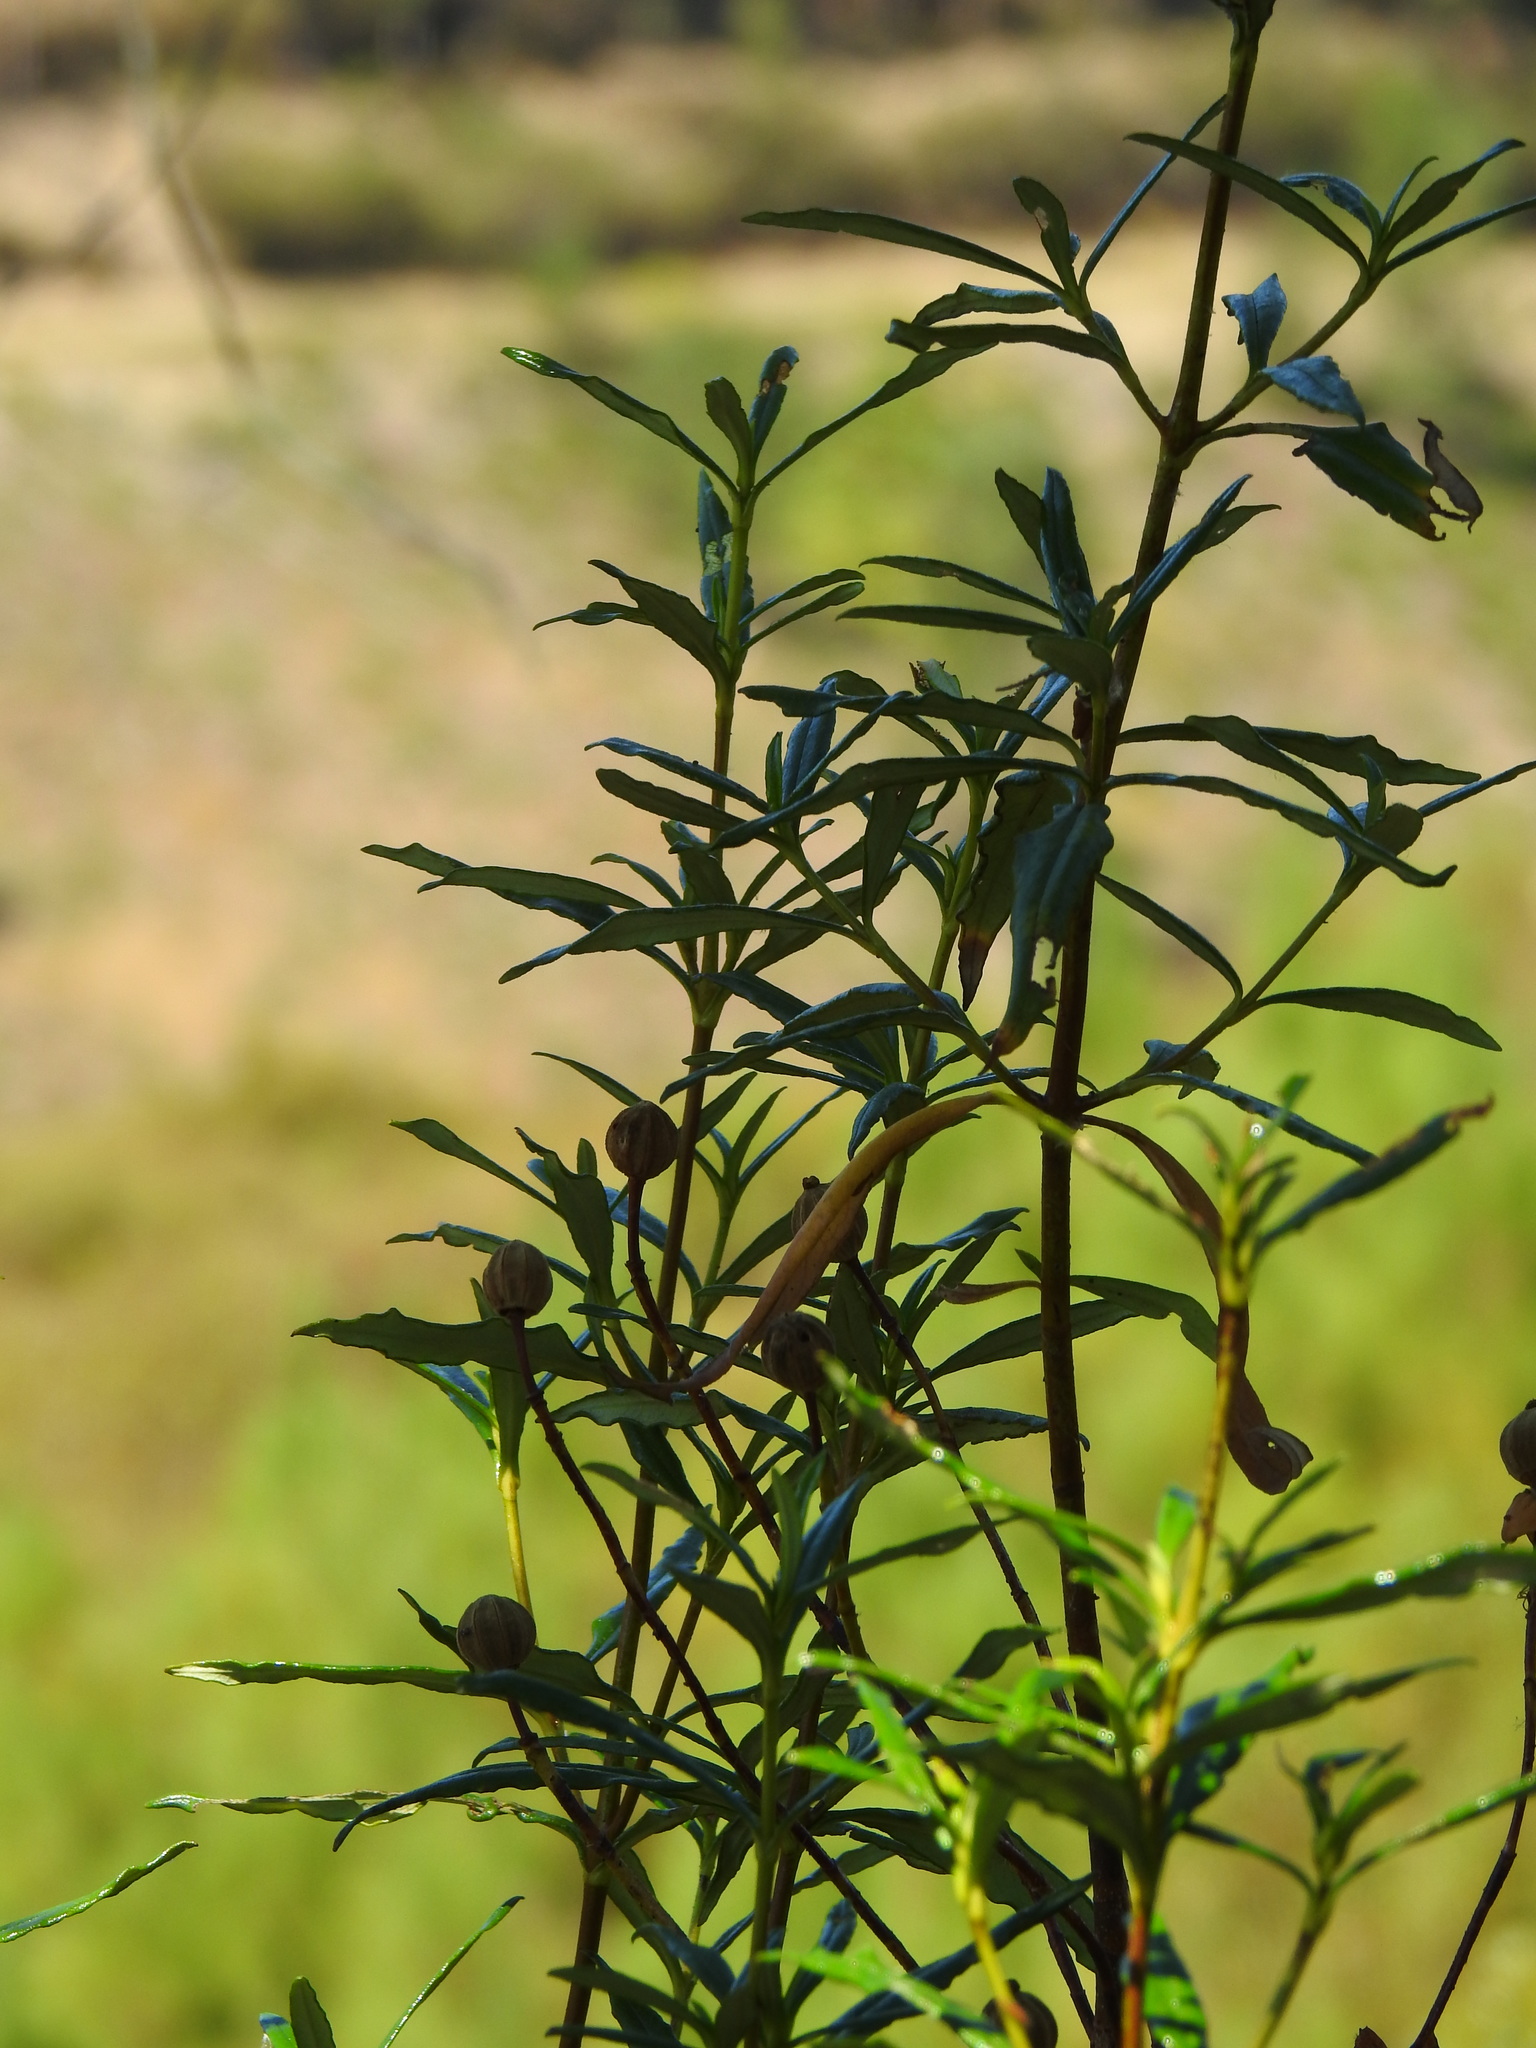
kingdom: Plantae
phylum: Tracheophyta
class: Magnoliopsida
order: Malvales
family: Cistaceae
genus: Cistus
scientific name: Cistus ladanifer
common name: Common gum cistus
